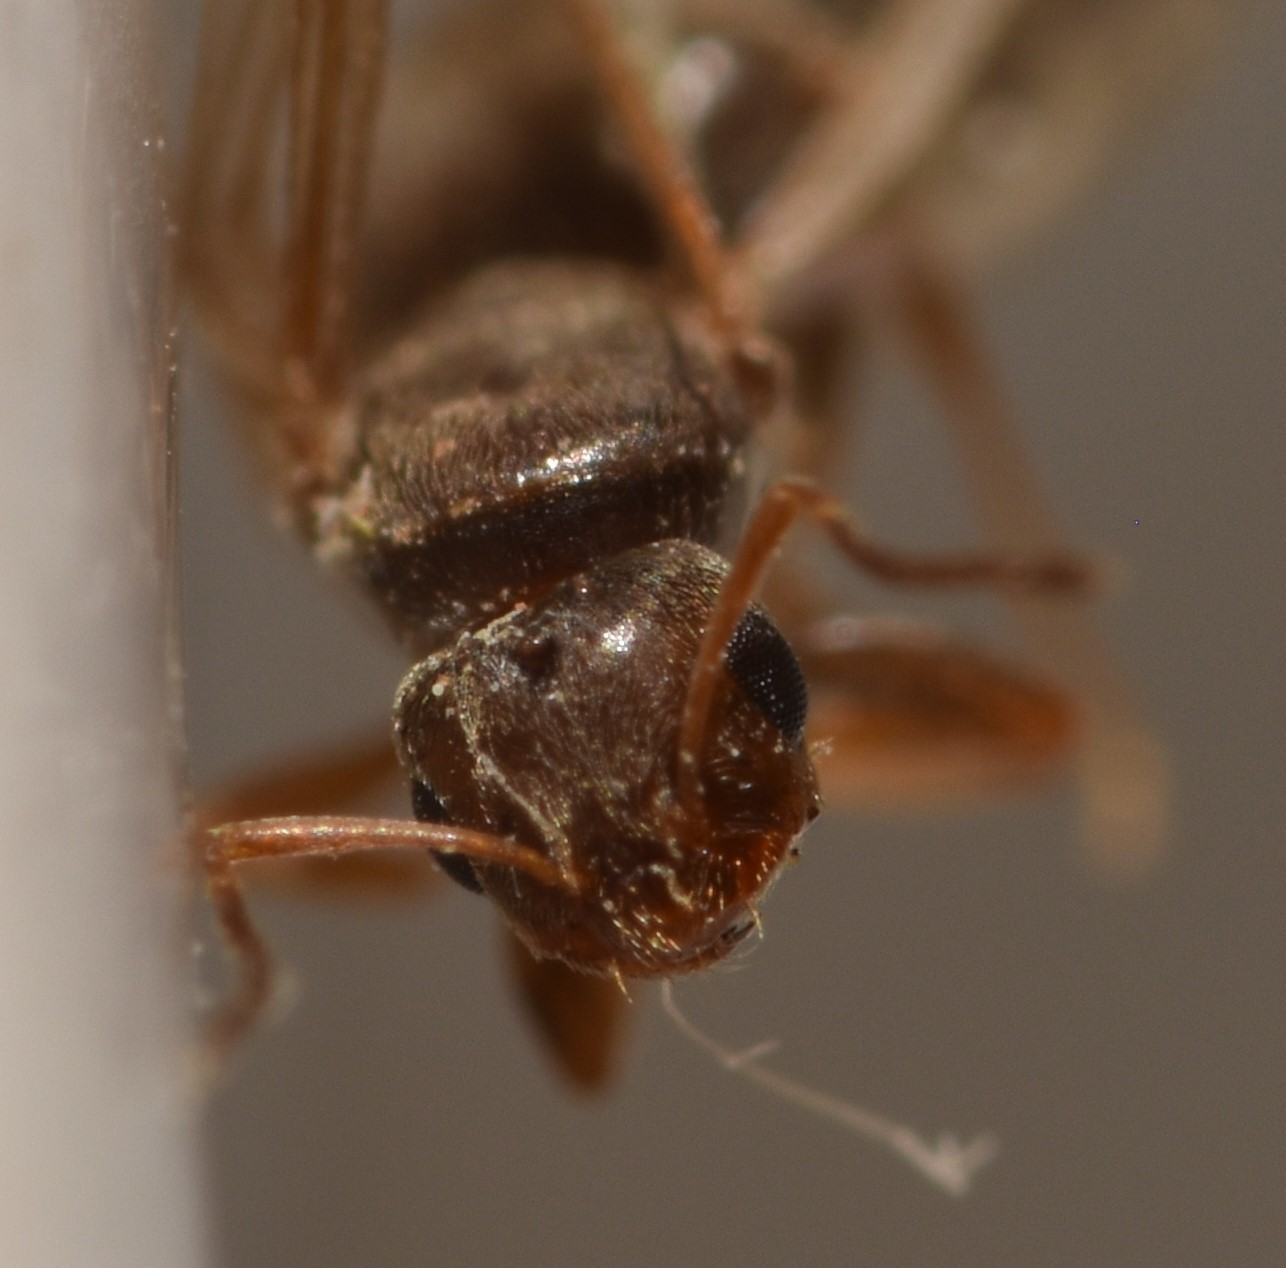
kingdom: Animalia
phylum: Arthropoda
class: Insecta
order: Hymenoptera
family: Formicidae
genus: Brachymyrmex
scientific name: Brachymyrmex patagonicus
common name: Dark rover ant
